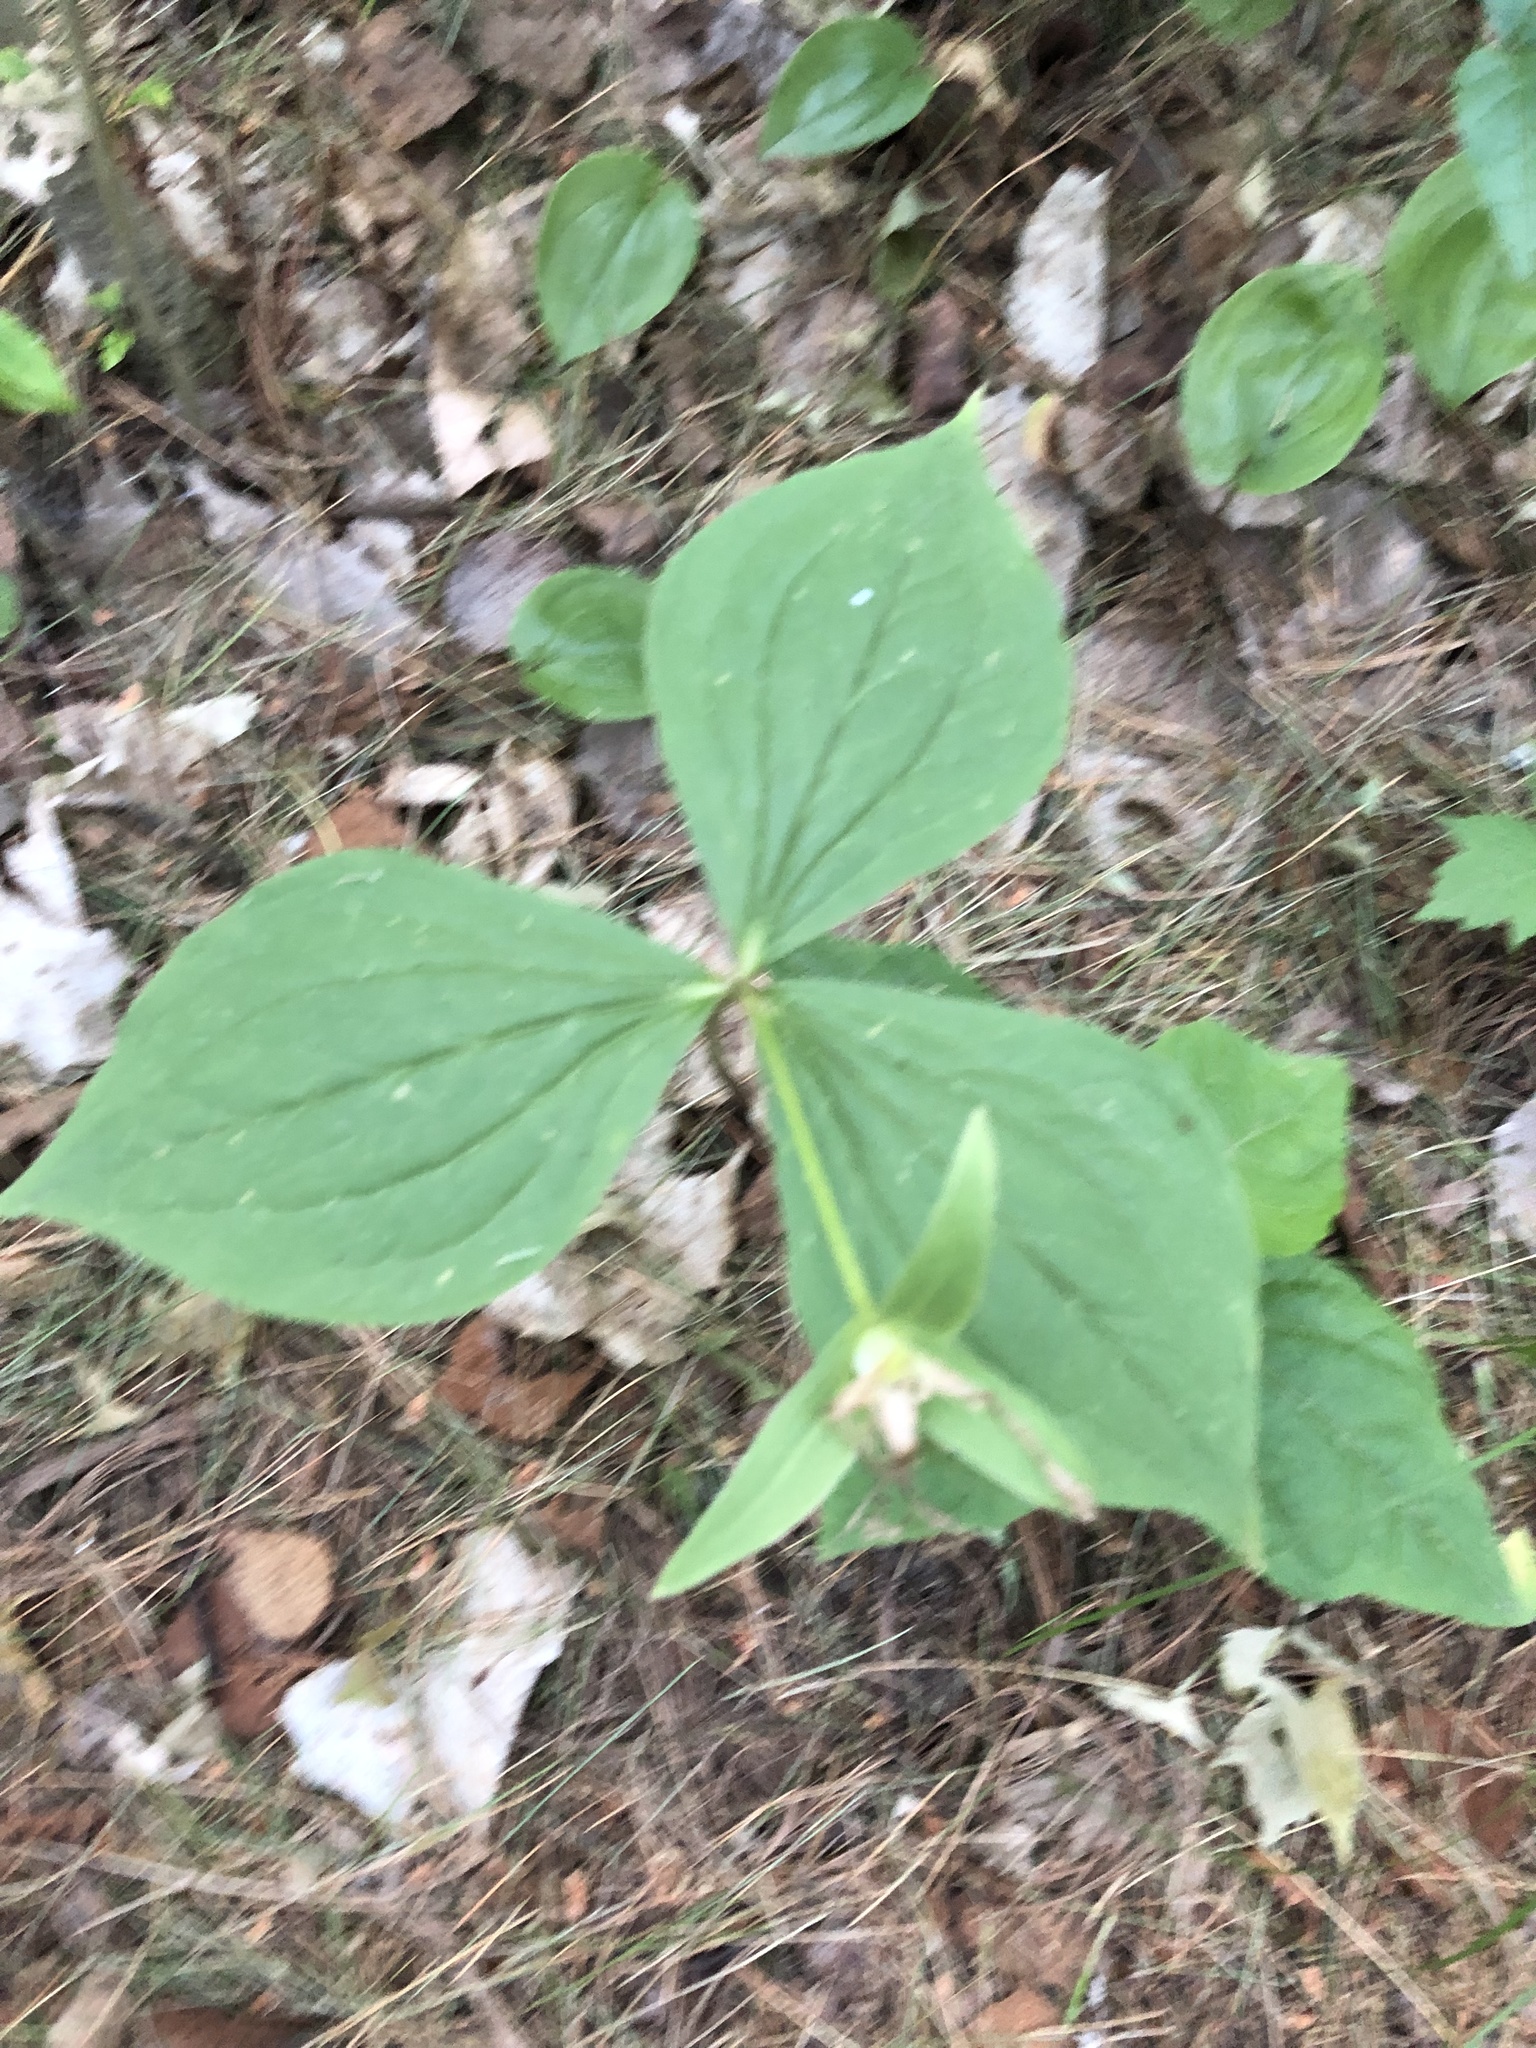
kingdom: Plantae
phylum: Tracheophyta
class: Liliopsida
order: Liliales
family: Melanthiaceae
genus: Trillium
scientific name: Trillium grandiflorum
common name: Great white trillium
